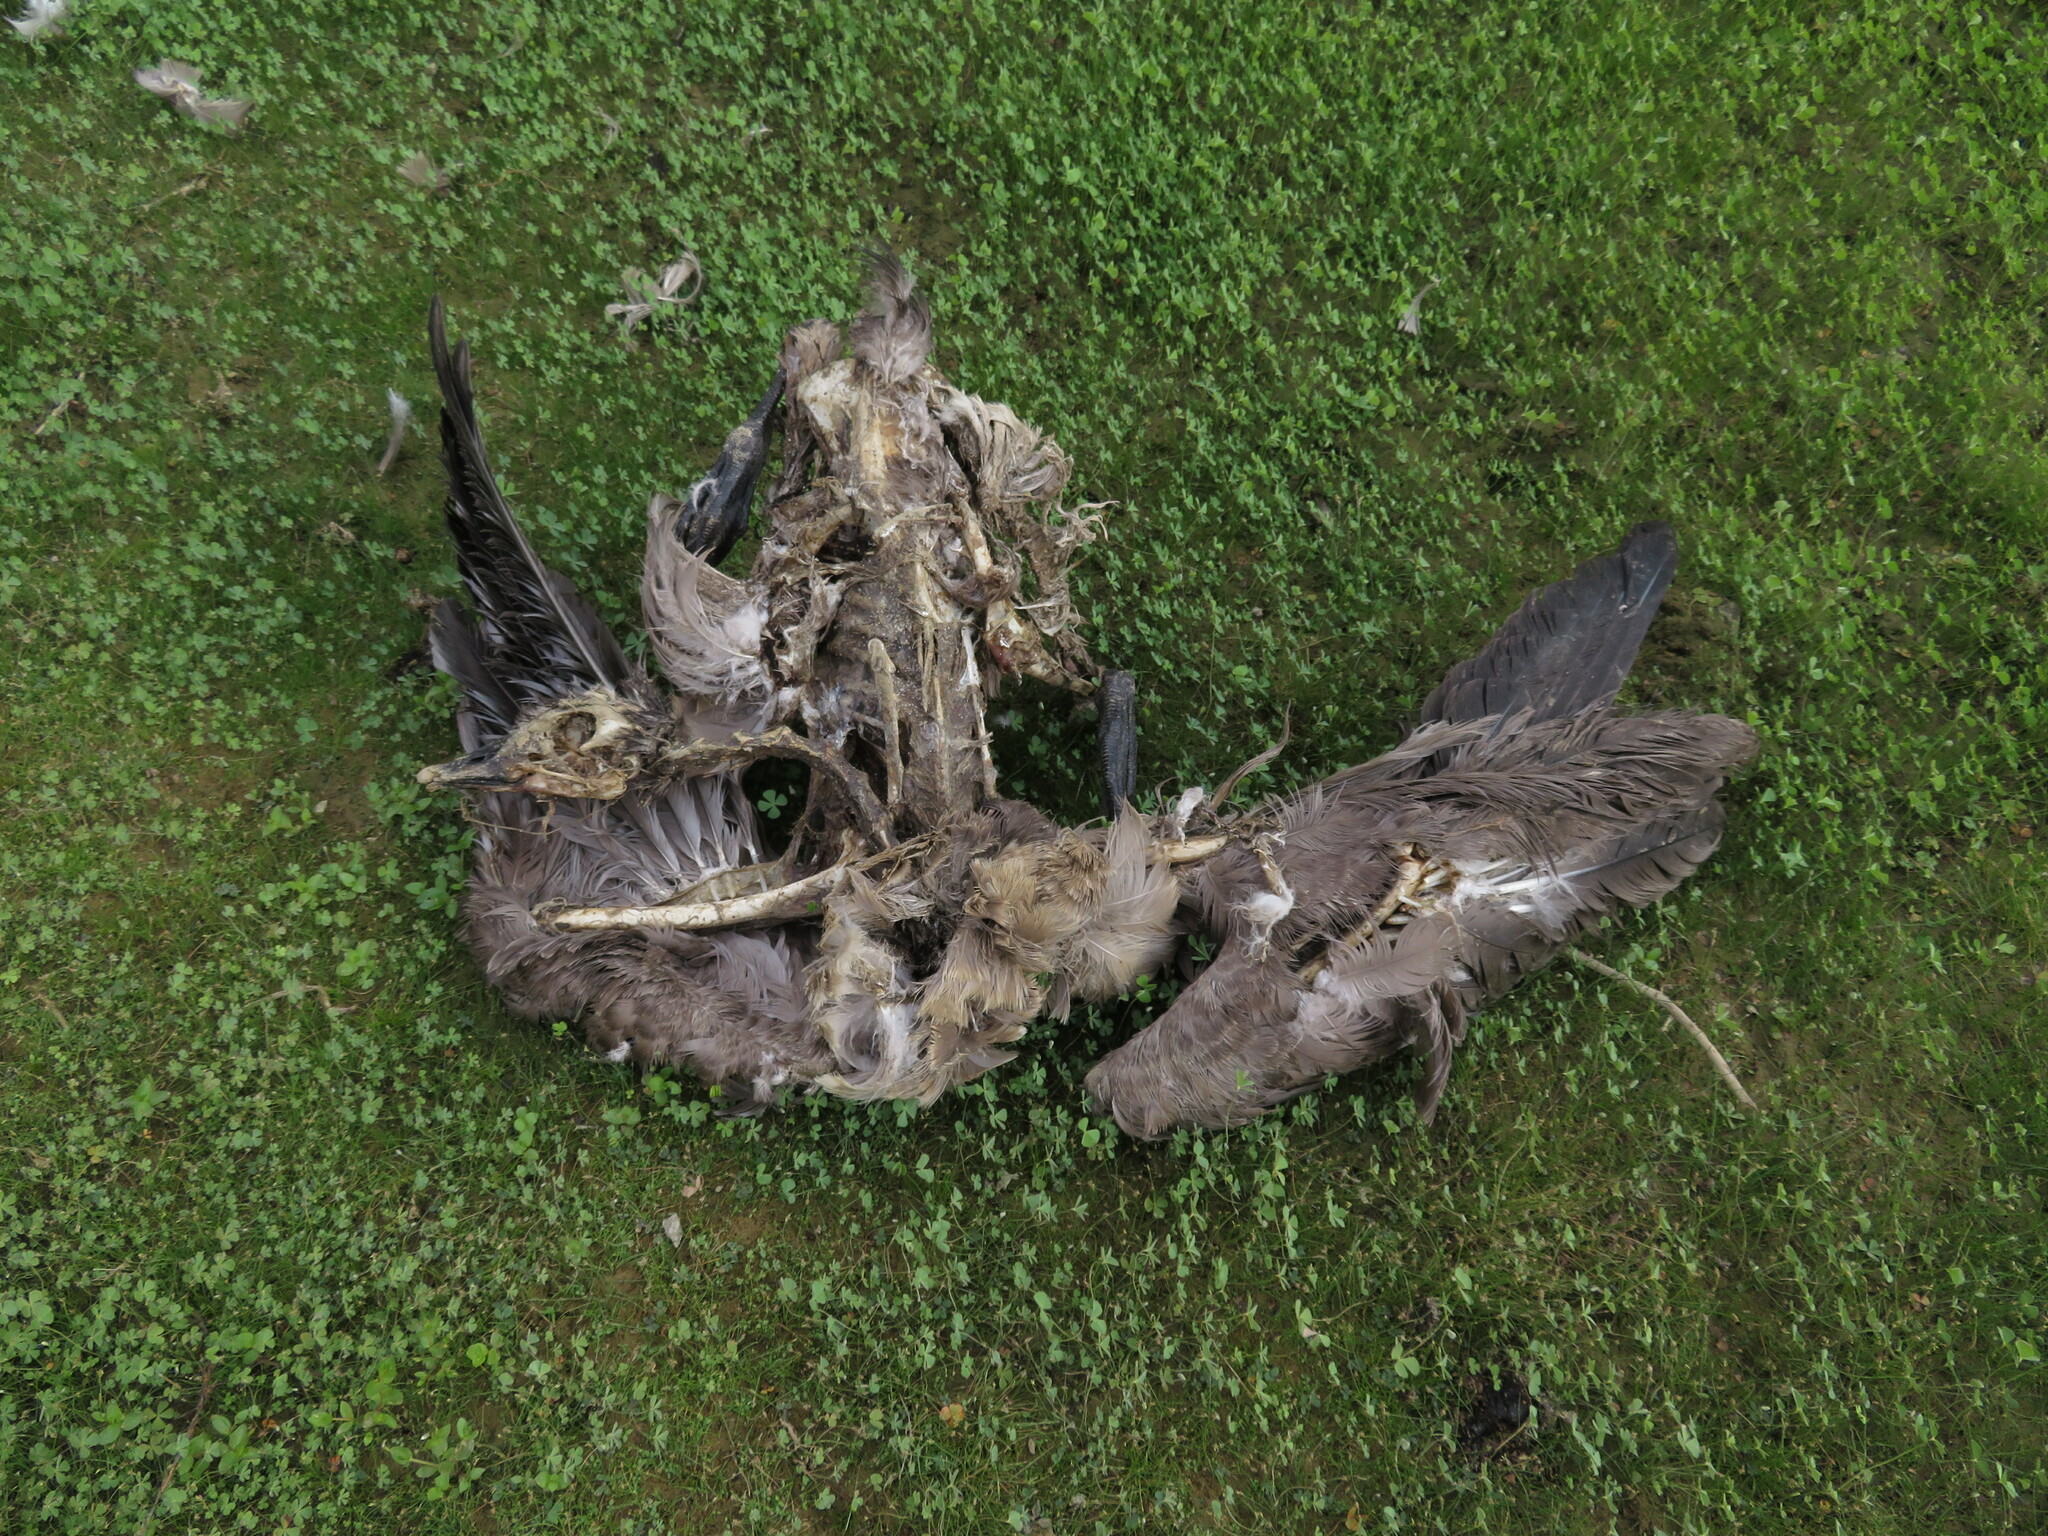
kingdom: Animalia
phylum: Chordata
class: Aves
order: Anseriformes
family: Anatidae
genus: Branta
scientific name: Branta canadensis
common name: Canada goose
